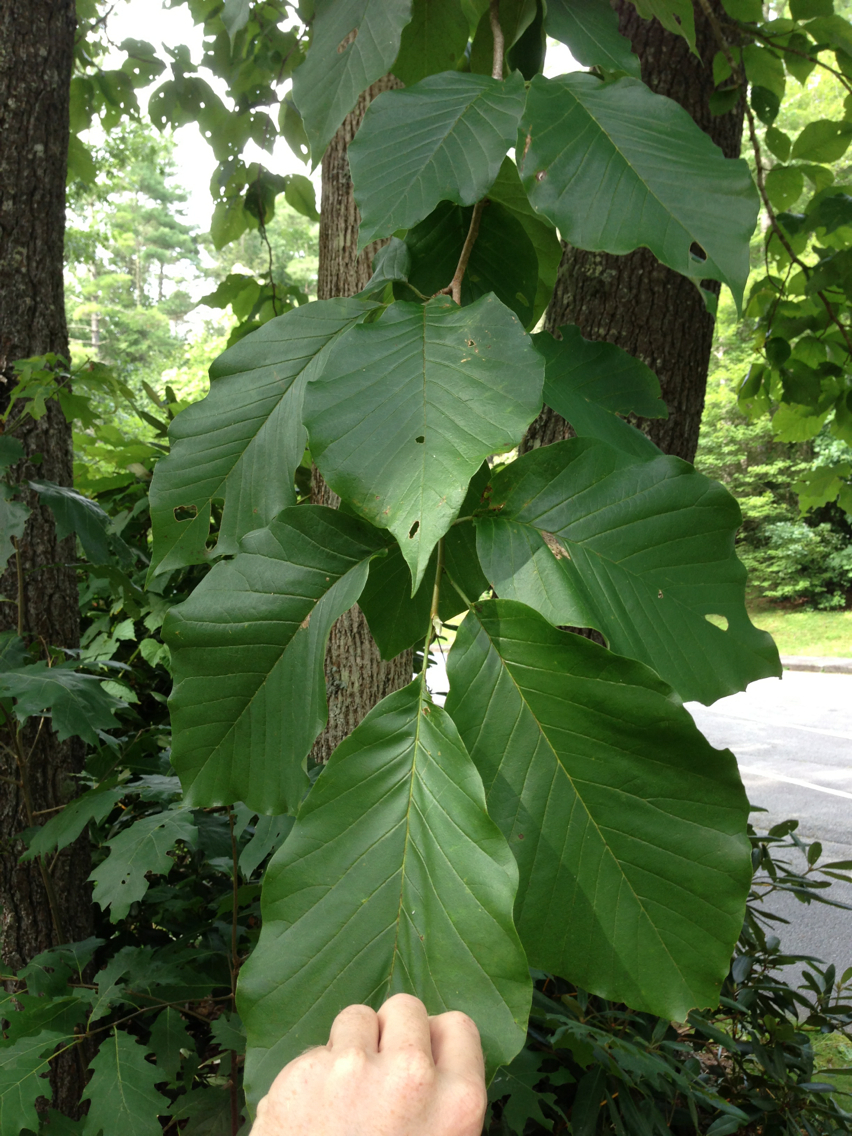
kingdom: Plantae
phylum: Tracheophyta
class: Magnoliopsida
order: Magnoliales
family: Magnoliaceae
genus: Magnolia
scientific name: Magnolia acuminata
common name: Cucumber magnolia
